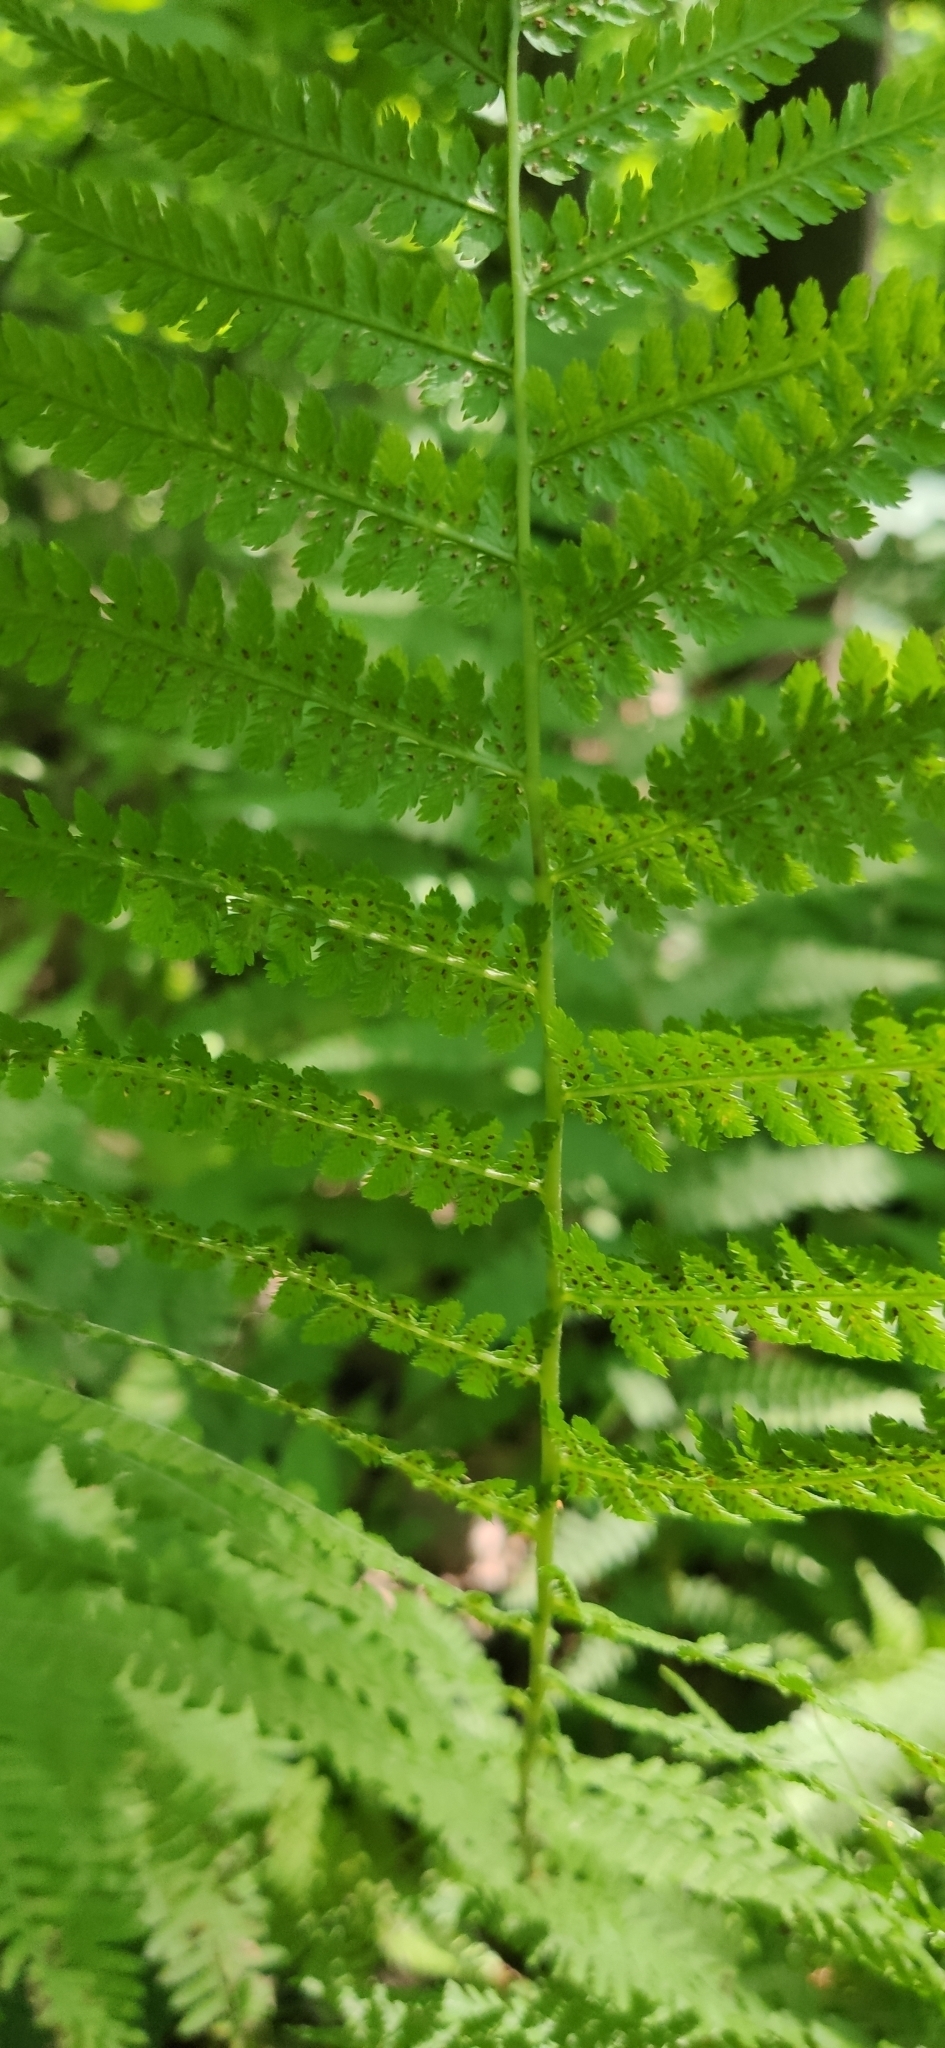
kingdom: Plantae
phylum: Tracheophyta
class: Polypodiopsida
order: Polypodiales
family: Athyriaceae
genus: Athyrium
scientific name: Athyrium filix-femina
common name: Lady fern
